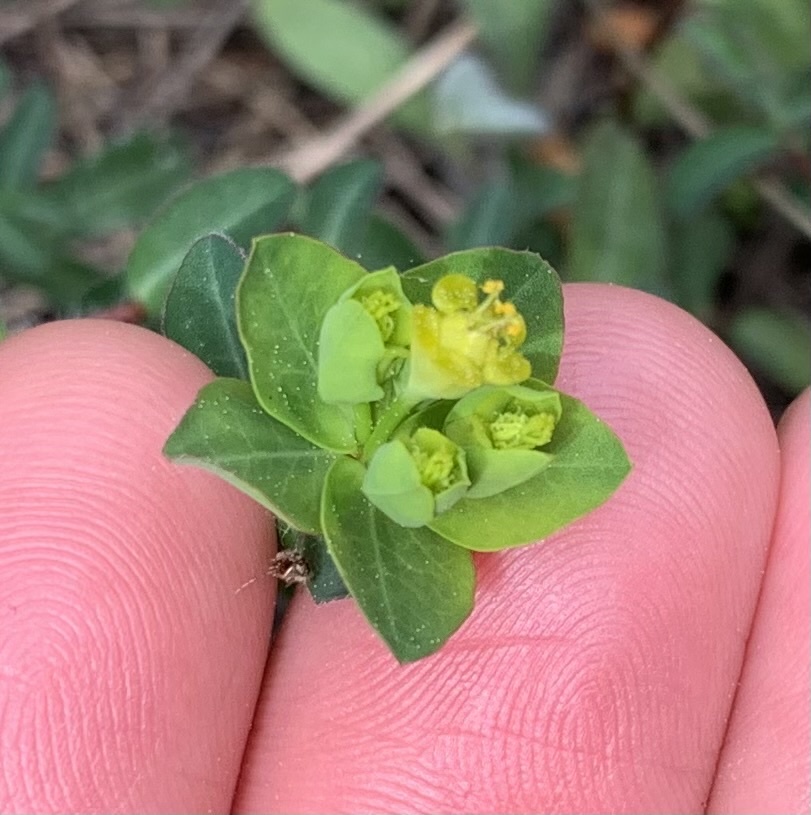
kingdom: Plantae
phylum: Tracheophyta
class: Magnoliopsida
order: Malpighiales
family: Euphorbiaceae
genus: Euphorbia
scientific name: Euphorbia fragifera
